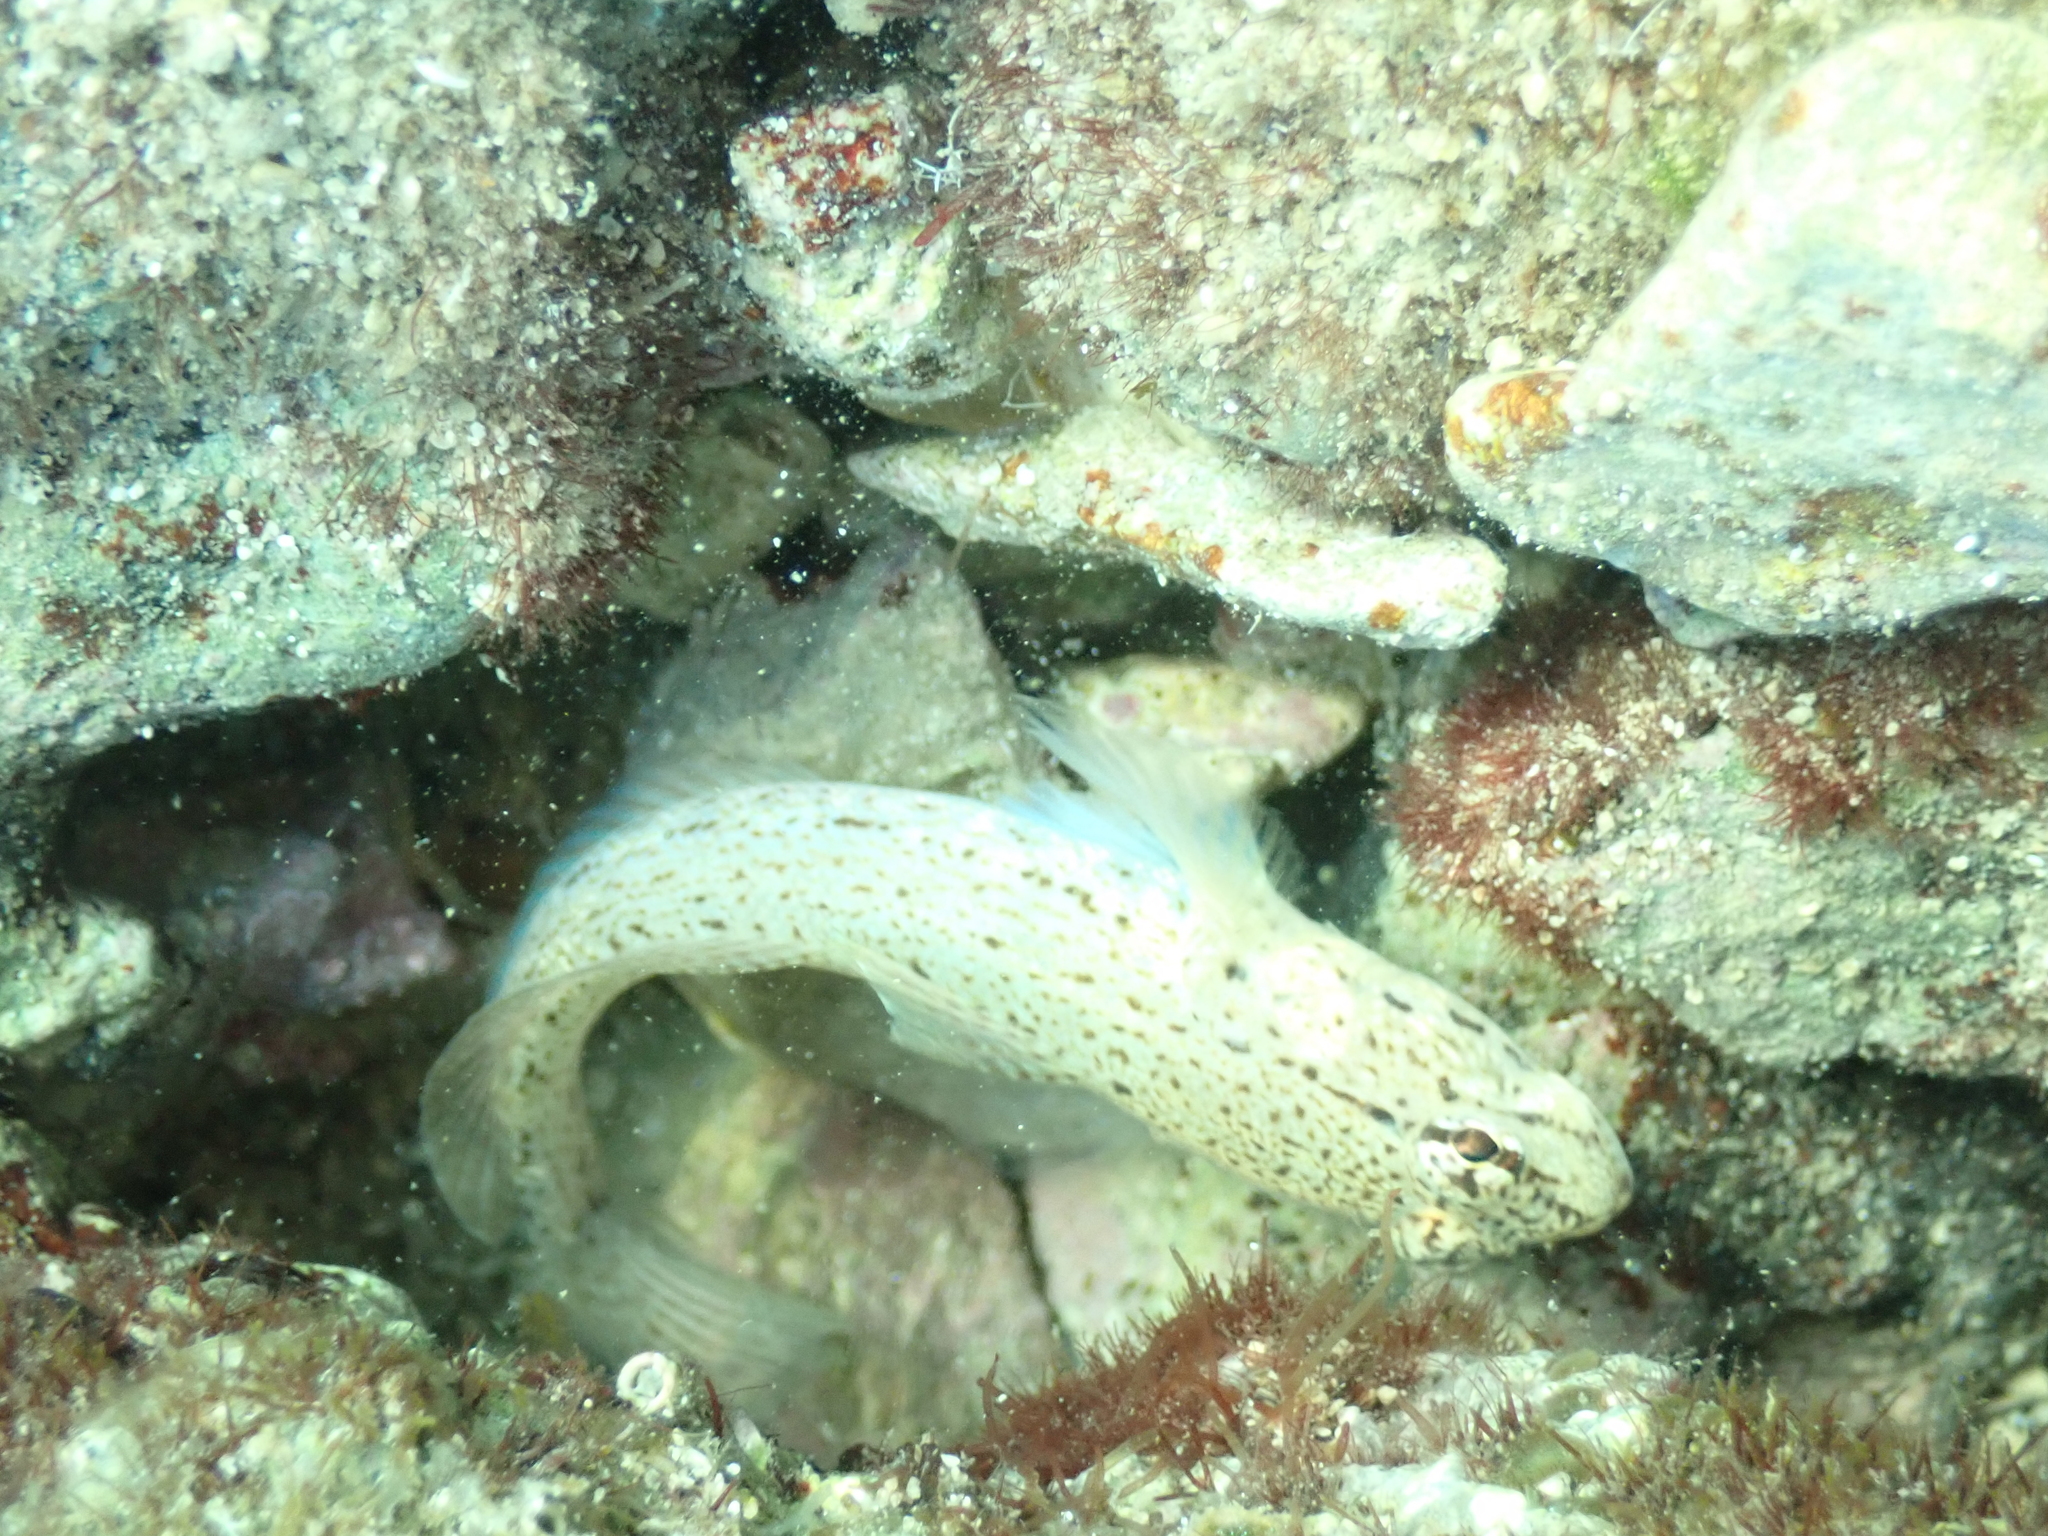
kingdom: Animalia
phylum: Chordata
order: Perciformes
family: Gobiidae
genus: Gobius
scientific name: Gobius bucchichi
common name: Bucchich's goby
